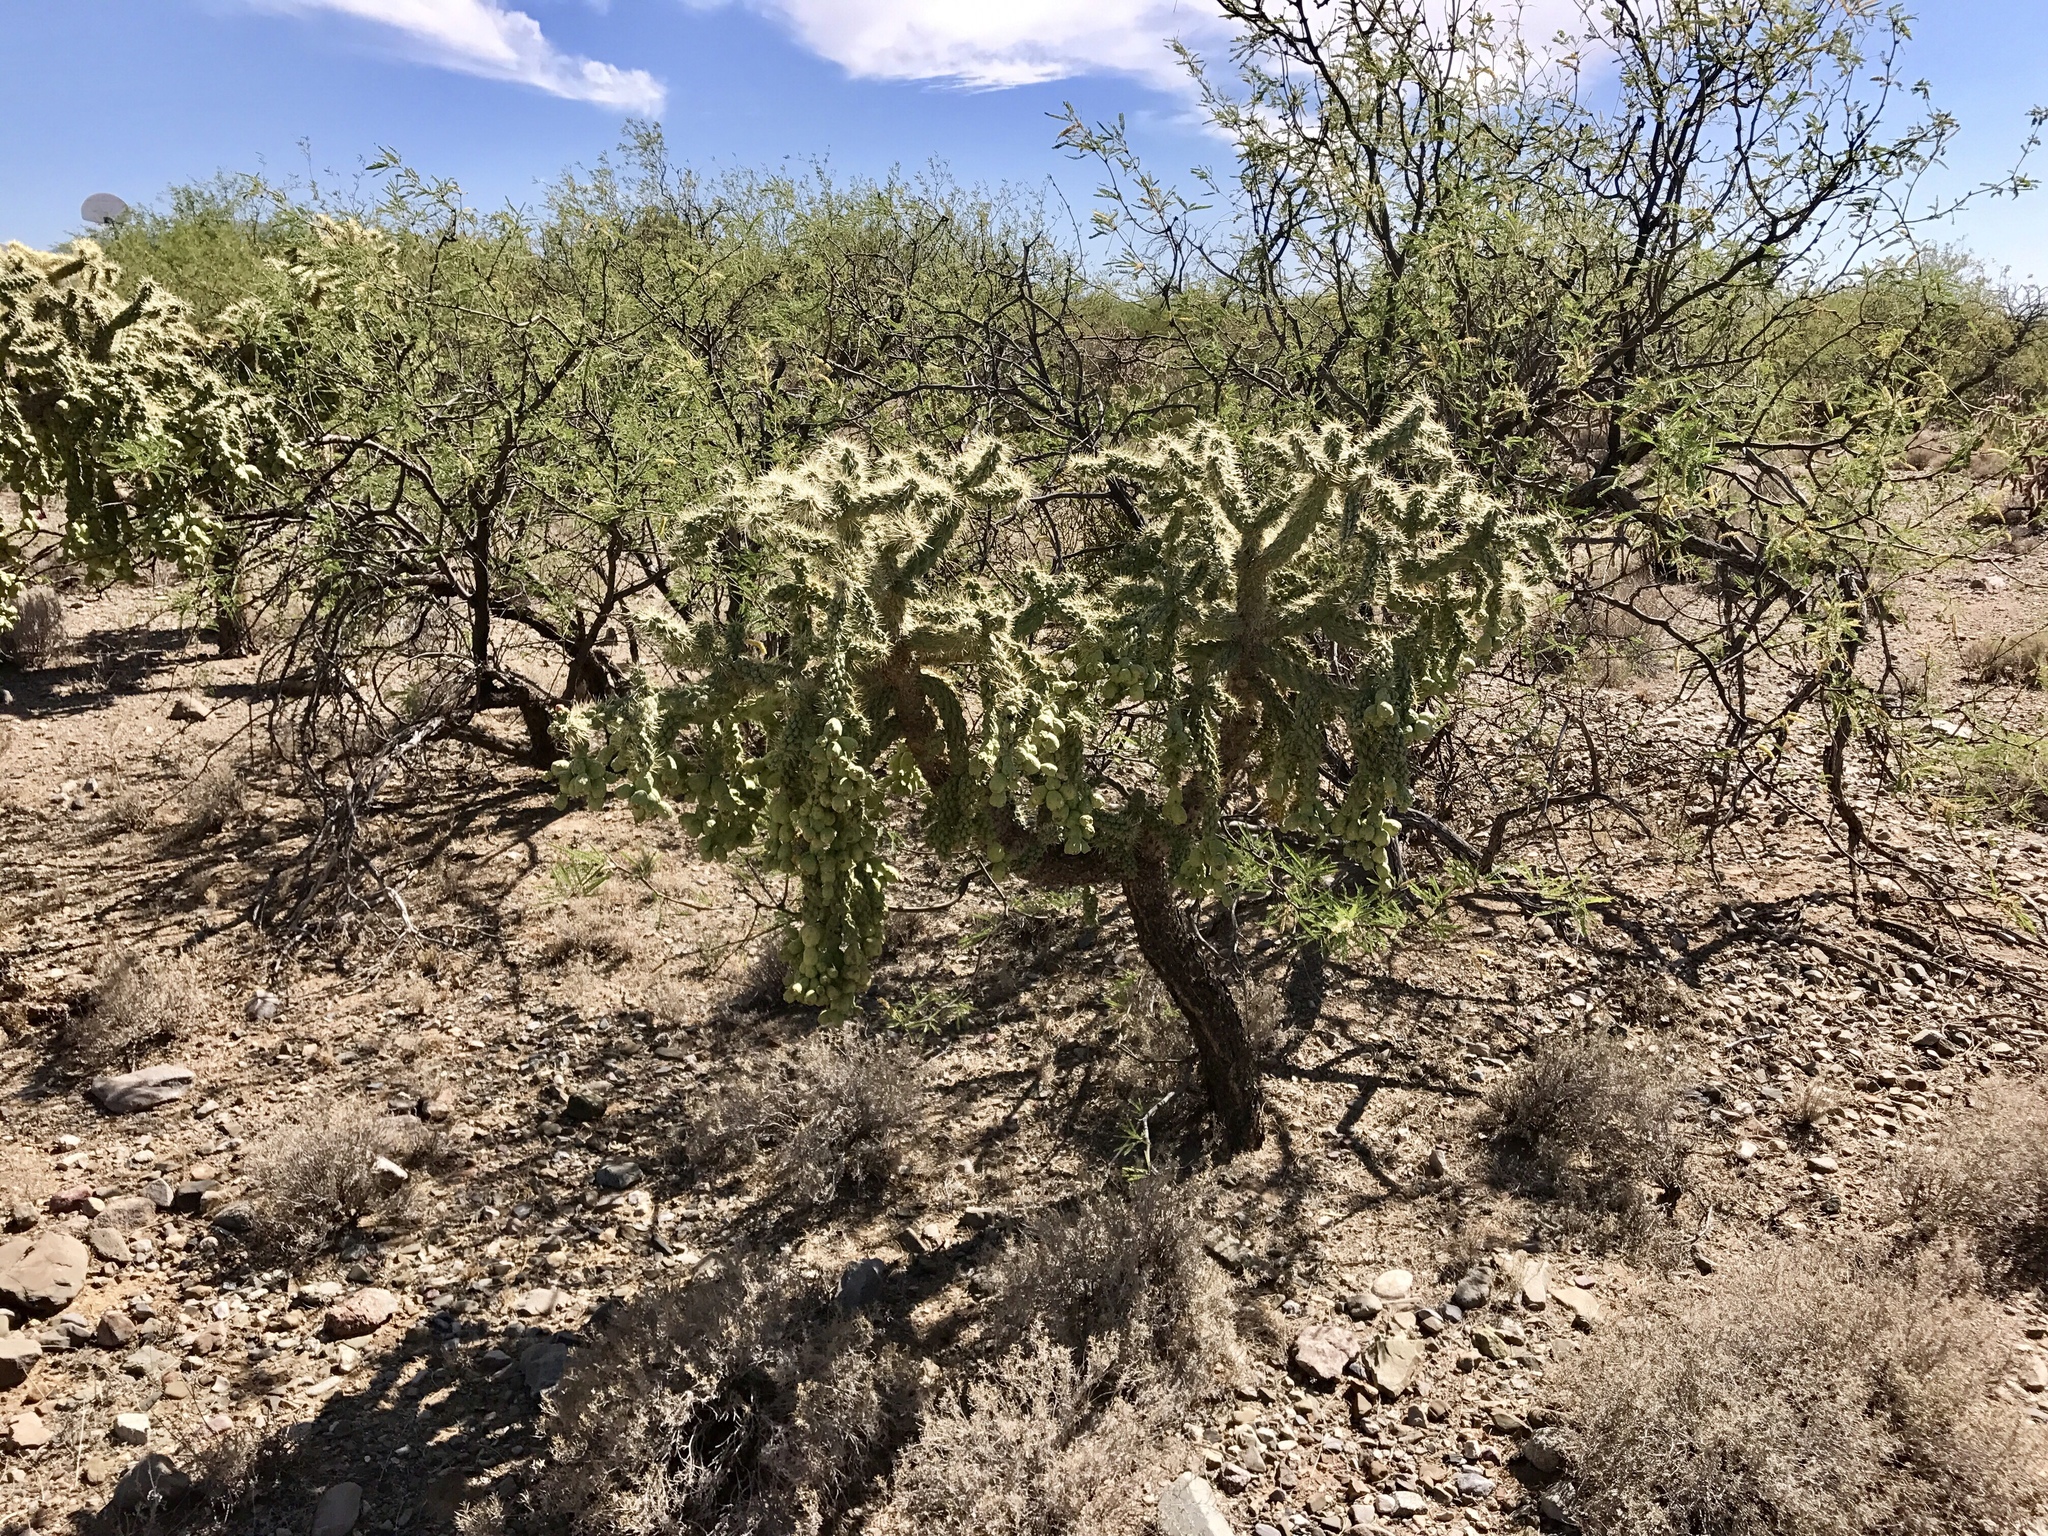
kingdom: Plantae
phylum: Tracheophyta
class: Magnoliopsida
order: Caryophyllales
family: Cactaceae
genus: Cylindropuntia
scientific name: Cylindropuntia fulgida
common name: Jumping cholla
